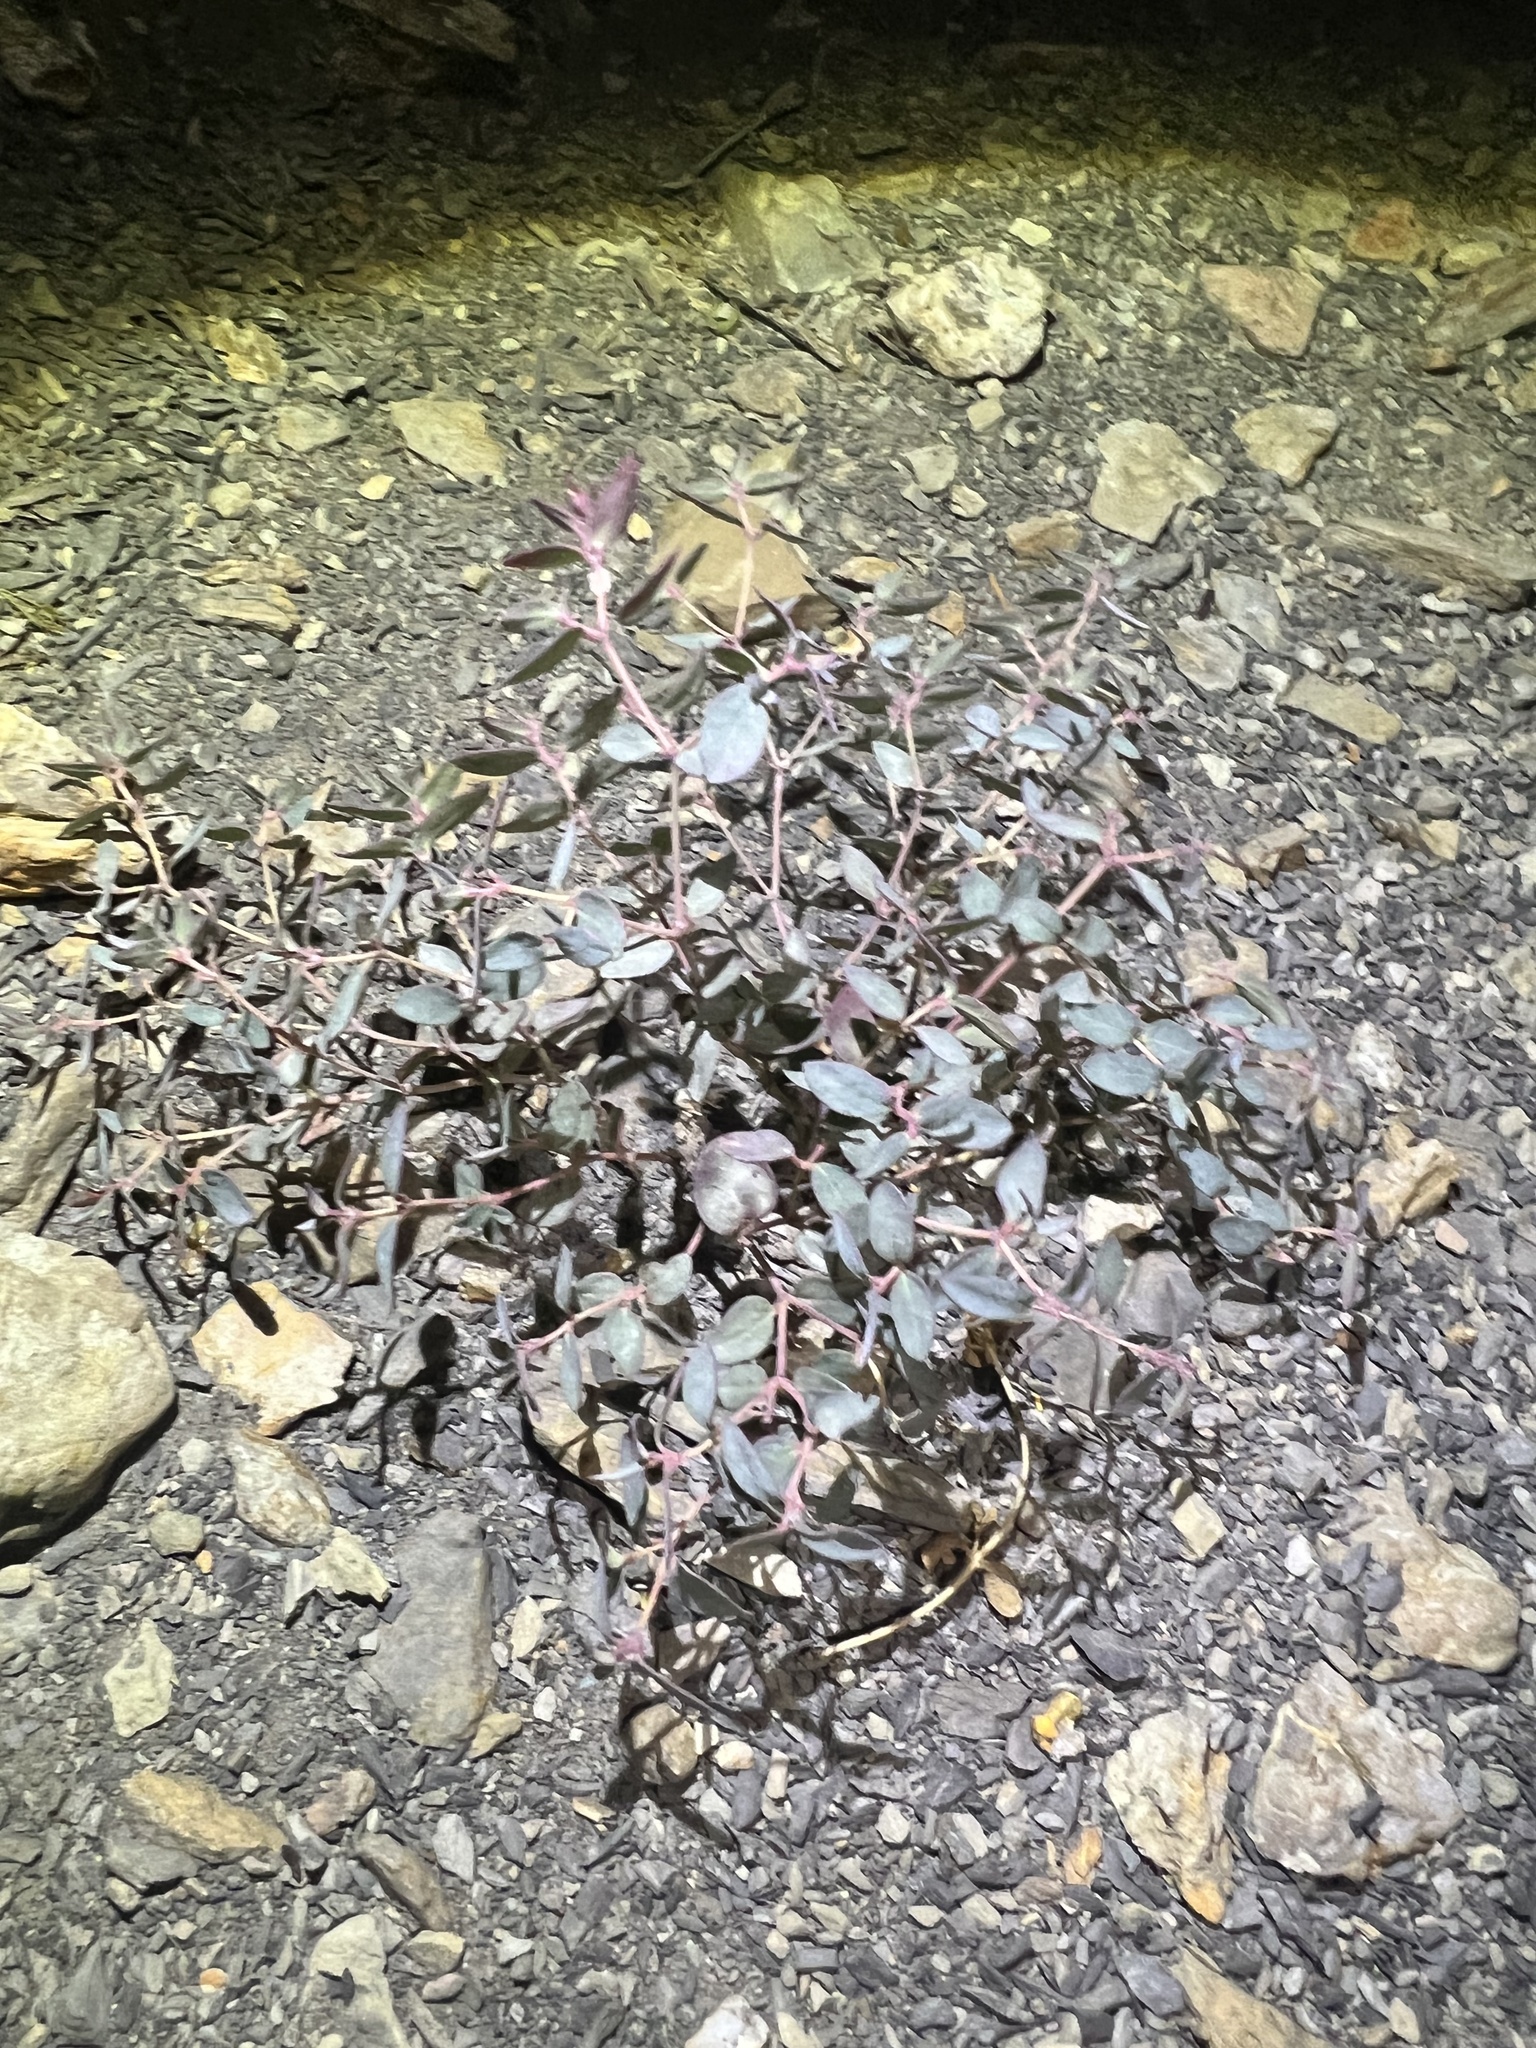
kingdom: Plantae
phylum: Tracheophyta
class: Magnoliopsida
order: Malpighiales
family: Euphorbiaceae
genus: Euphorbia
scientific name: Euphorbia fendleri
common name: Fendler's euphorbia
